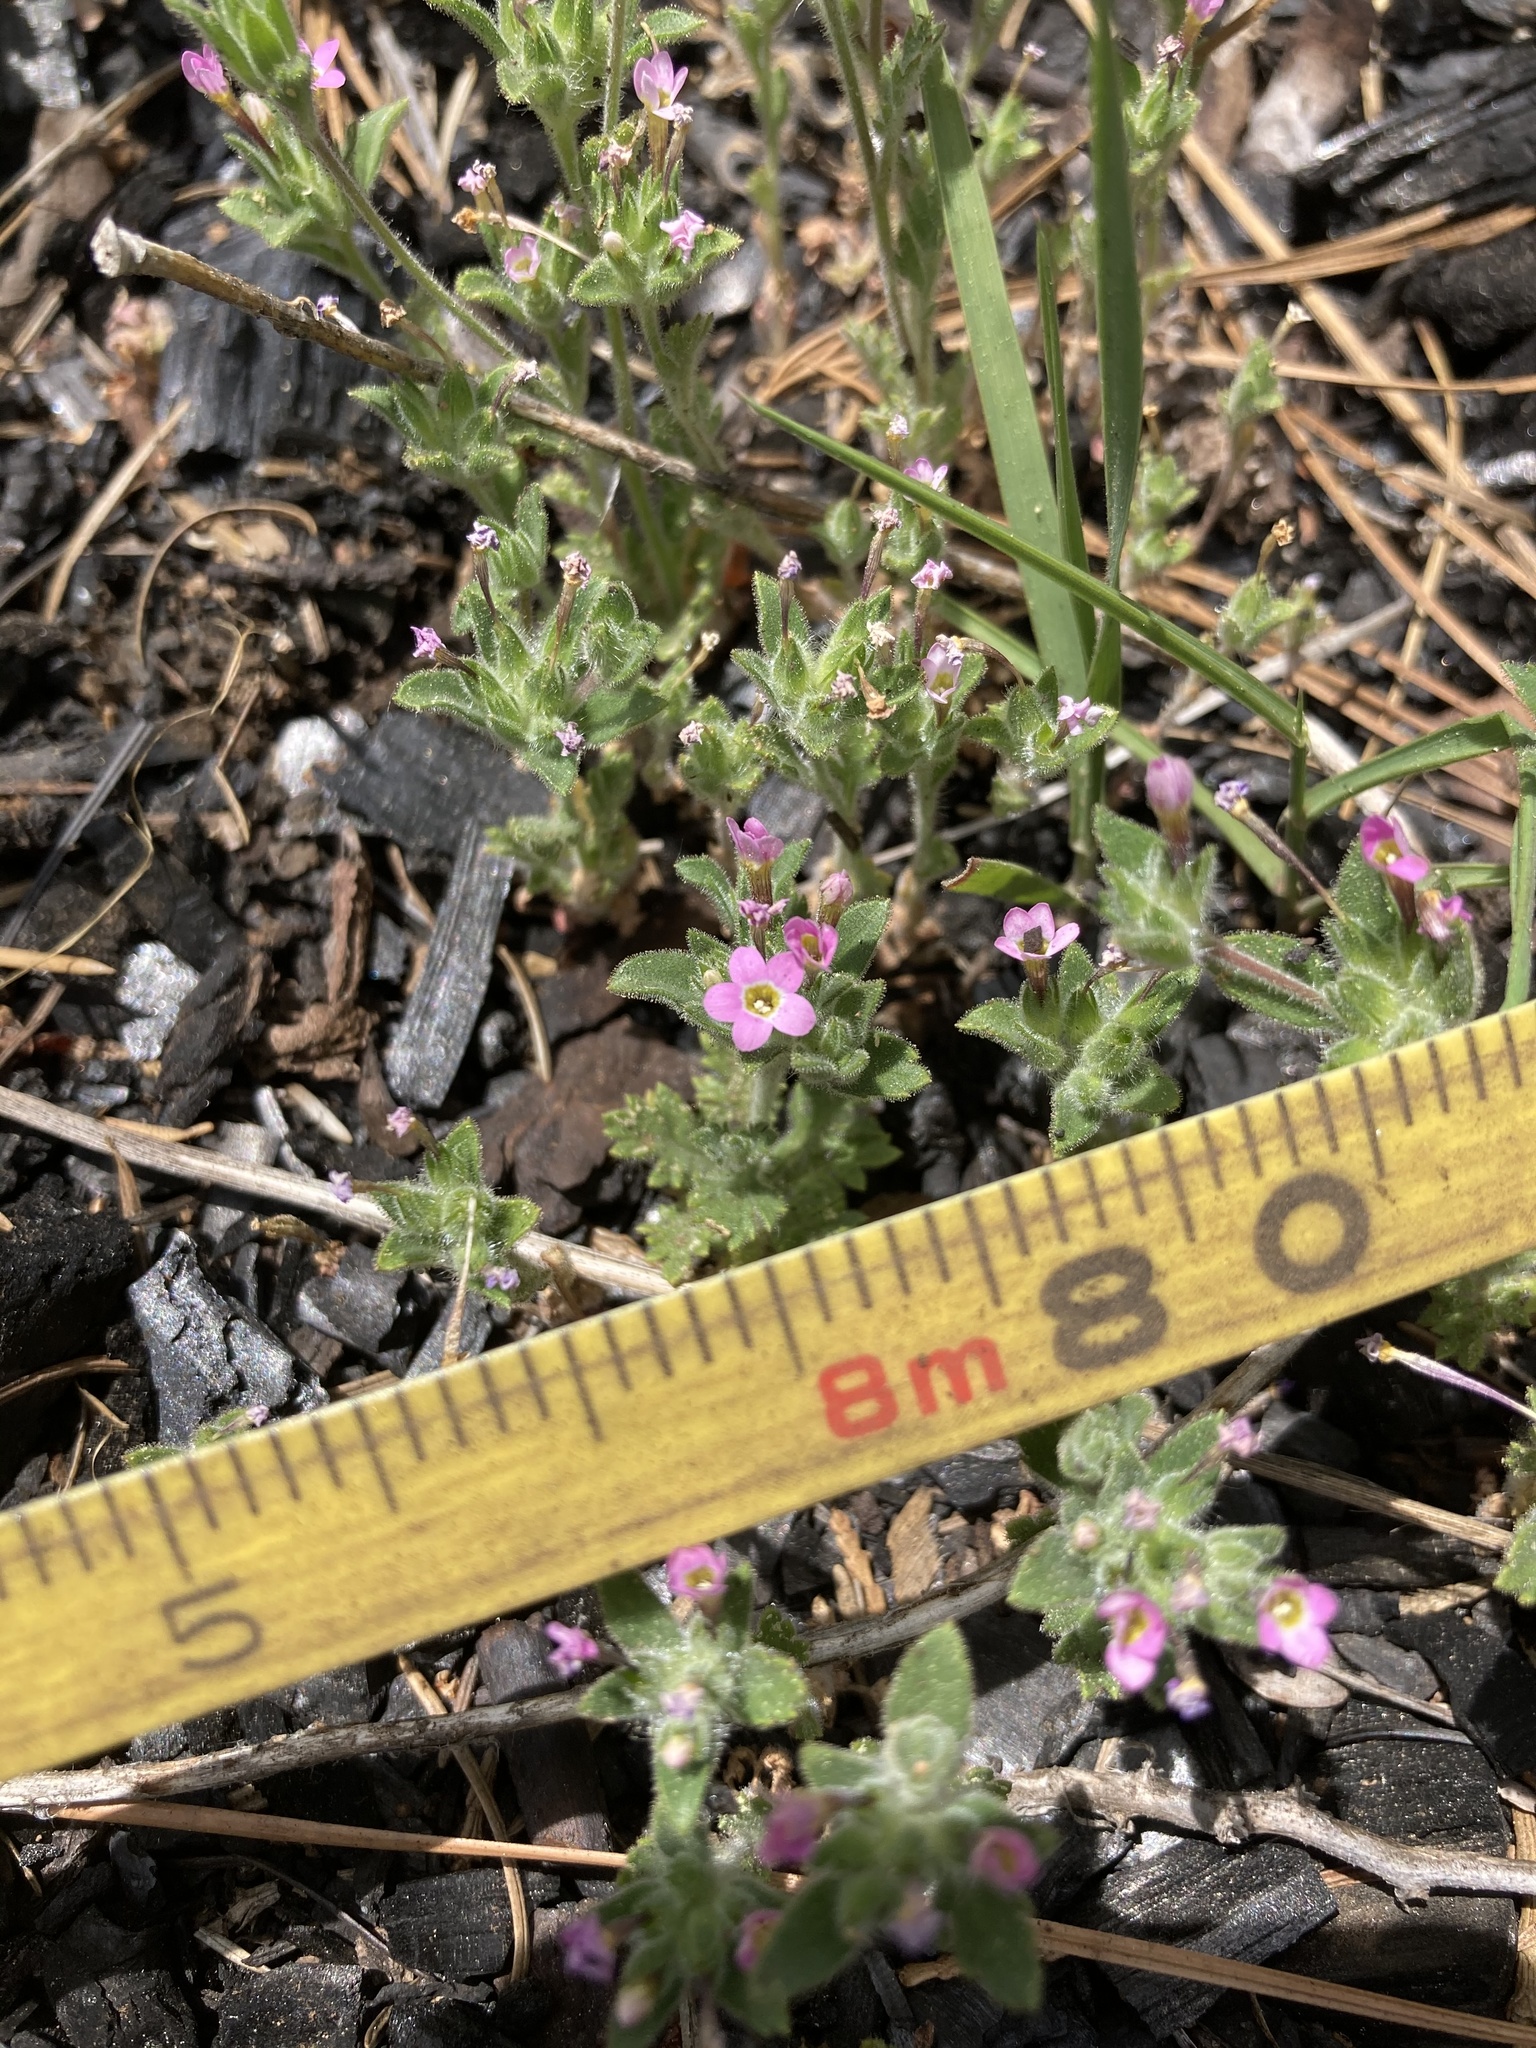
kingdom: Plantae
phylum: Tracheophyta
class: Magnoliopsida
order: Ericales
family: Polemoniaceae
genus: Collomia
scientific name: Collomia heterophylla
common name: Variable-leaved collomia
